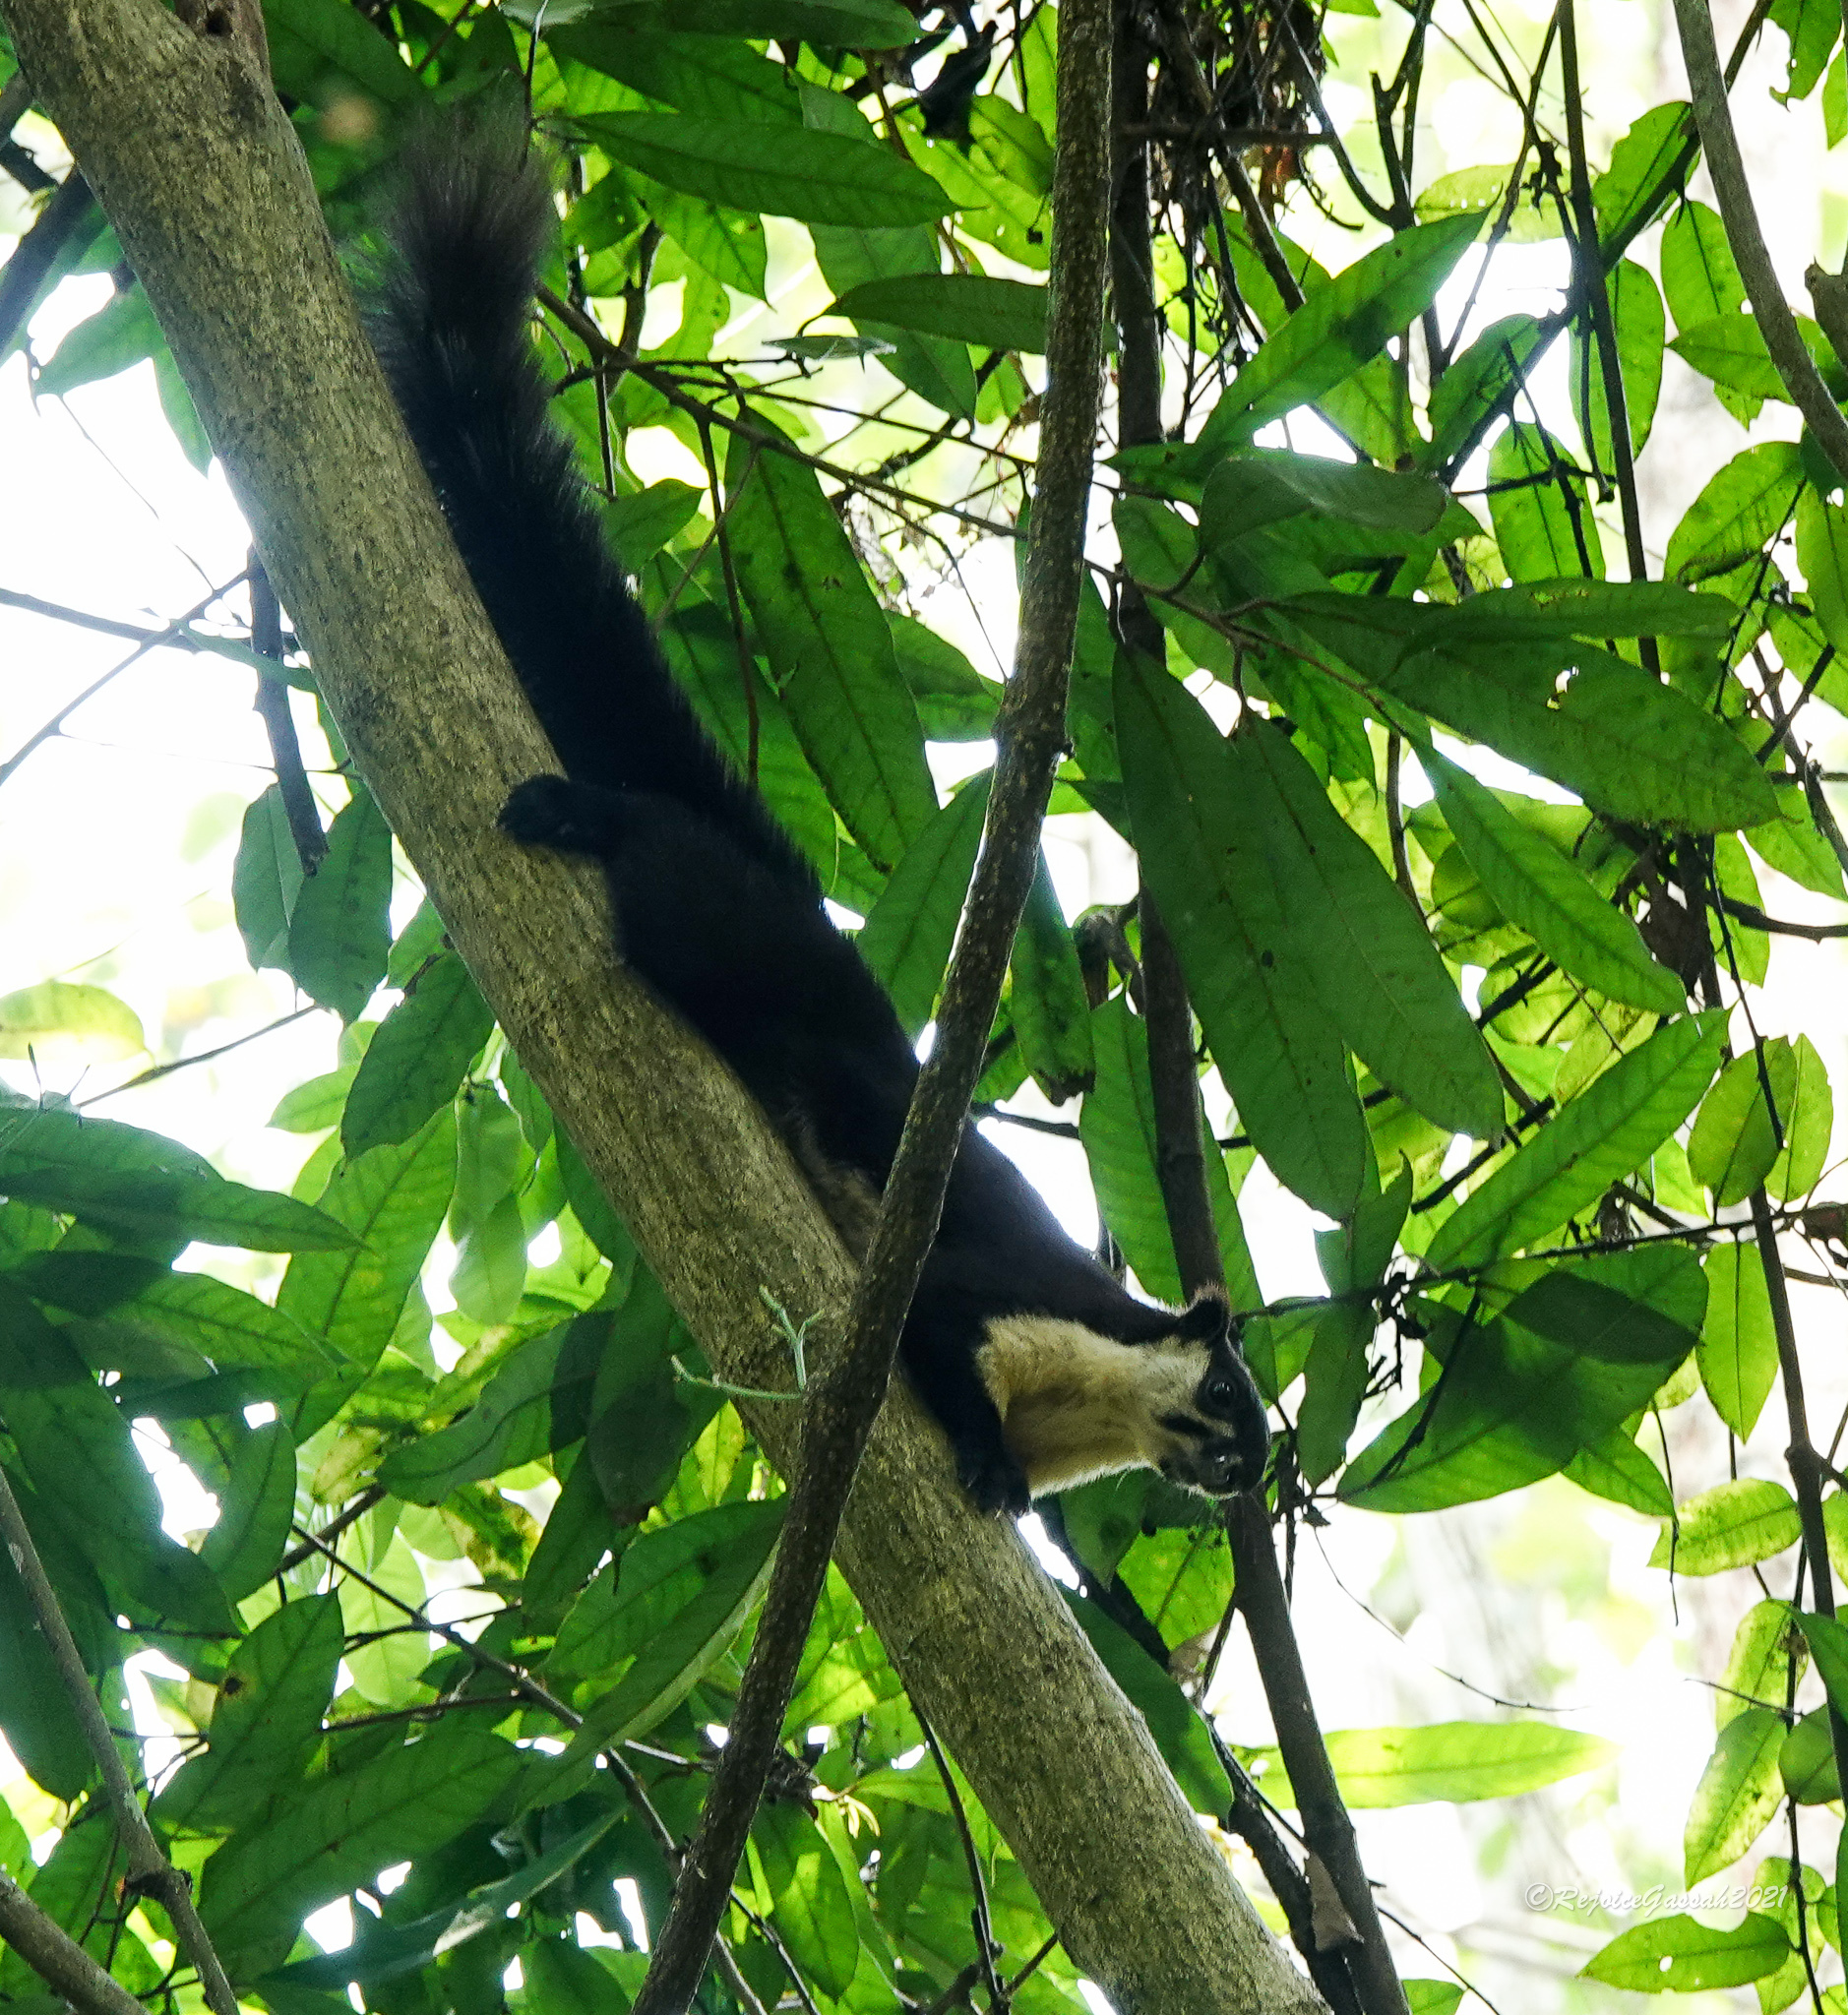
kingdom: Animalia
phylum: Chordata
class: Mammalia
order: Rodentia
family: Sciuridae
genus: Ratufa
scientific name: Ratufa bicolor
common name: Black giant squirrel
